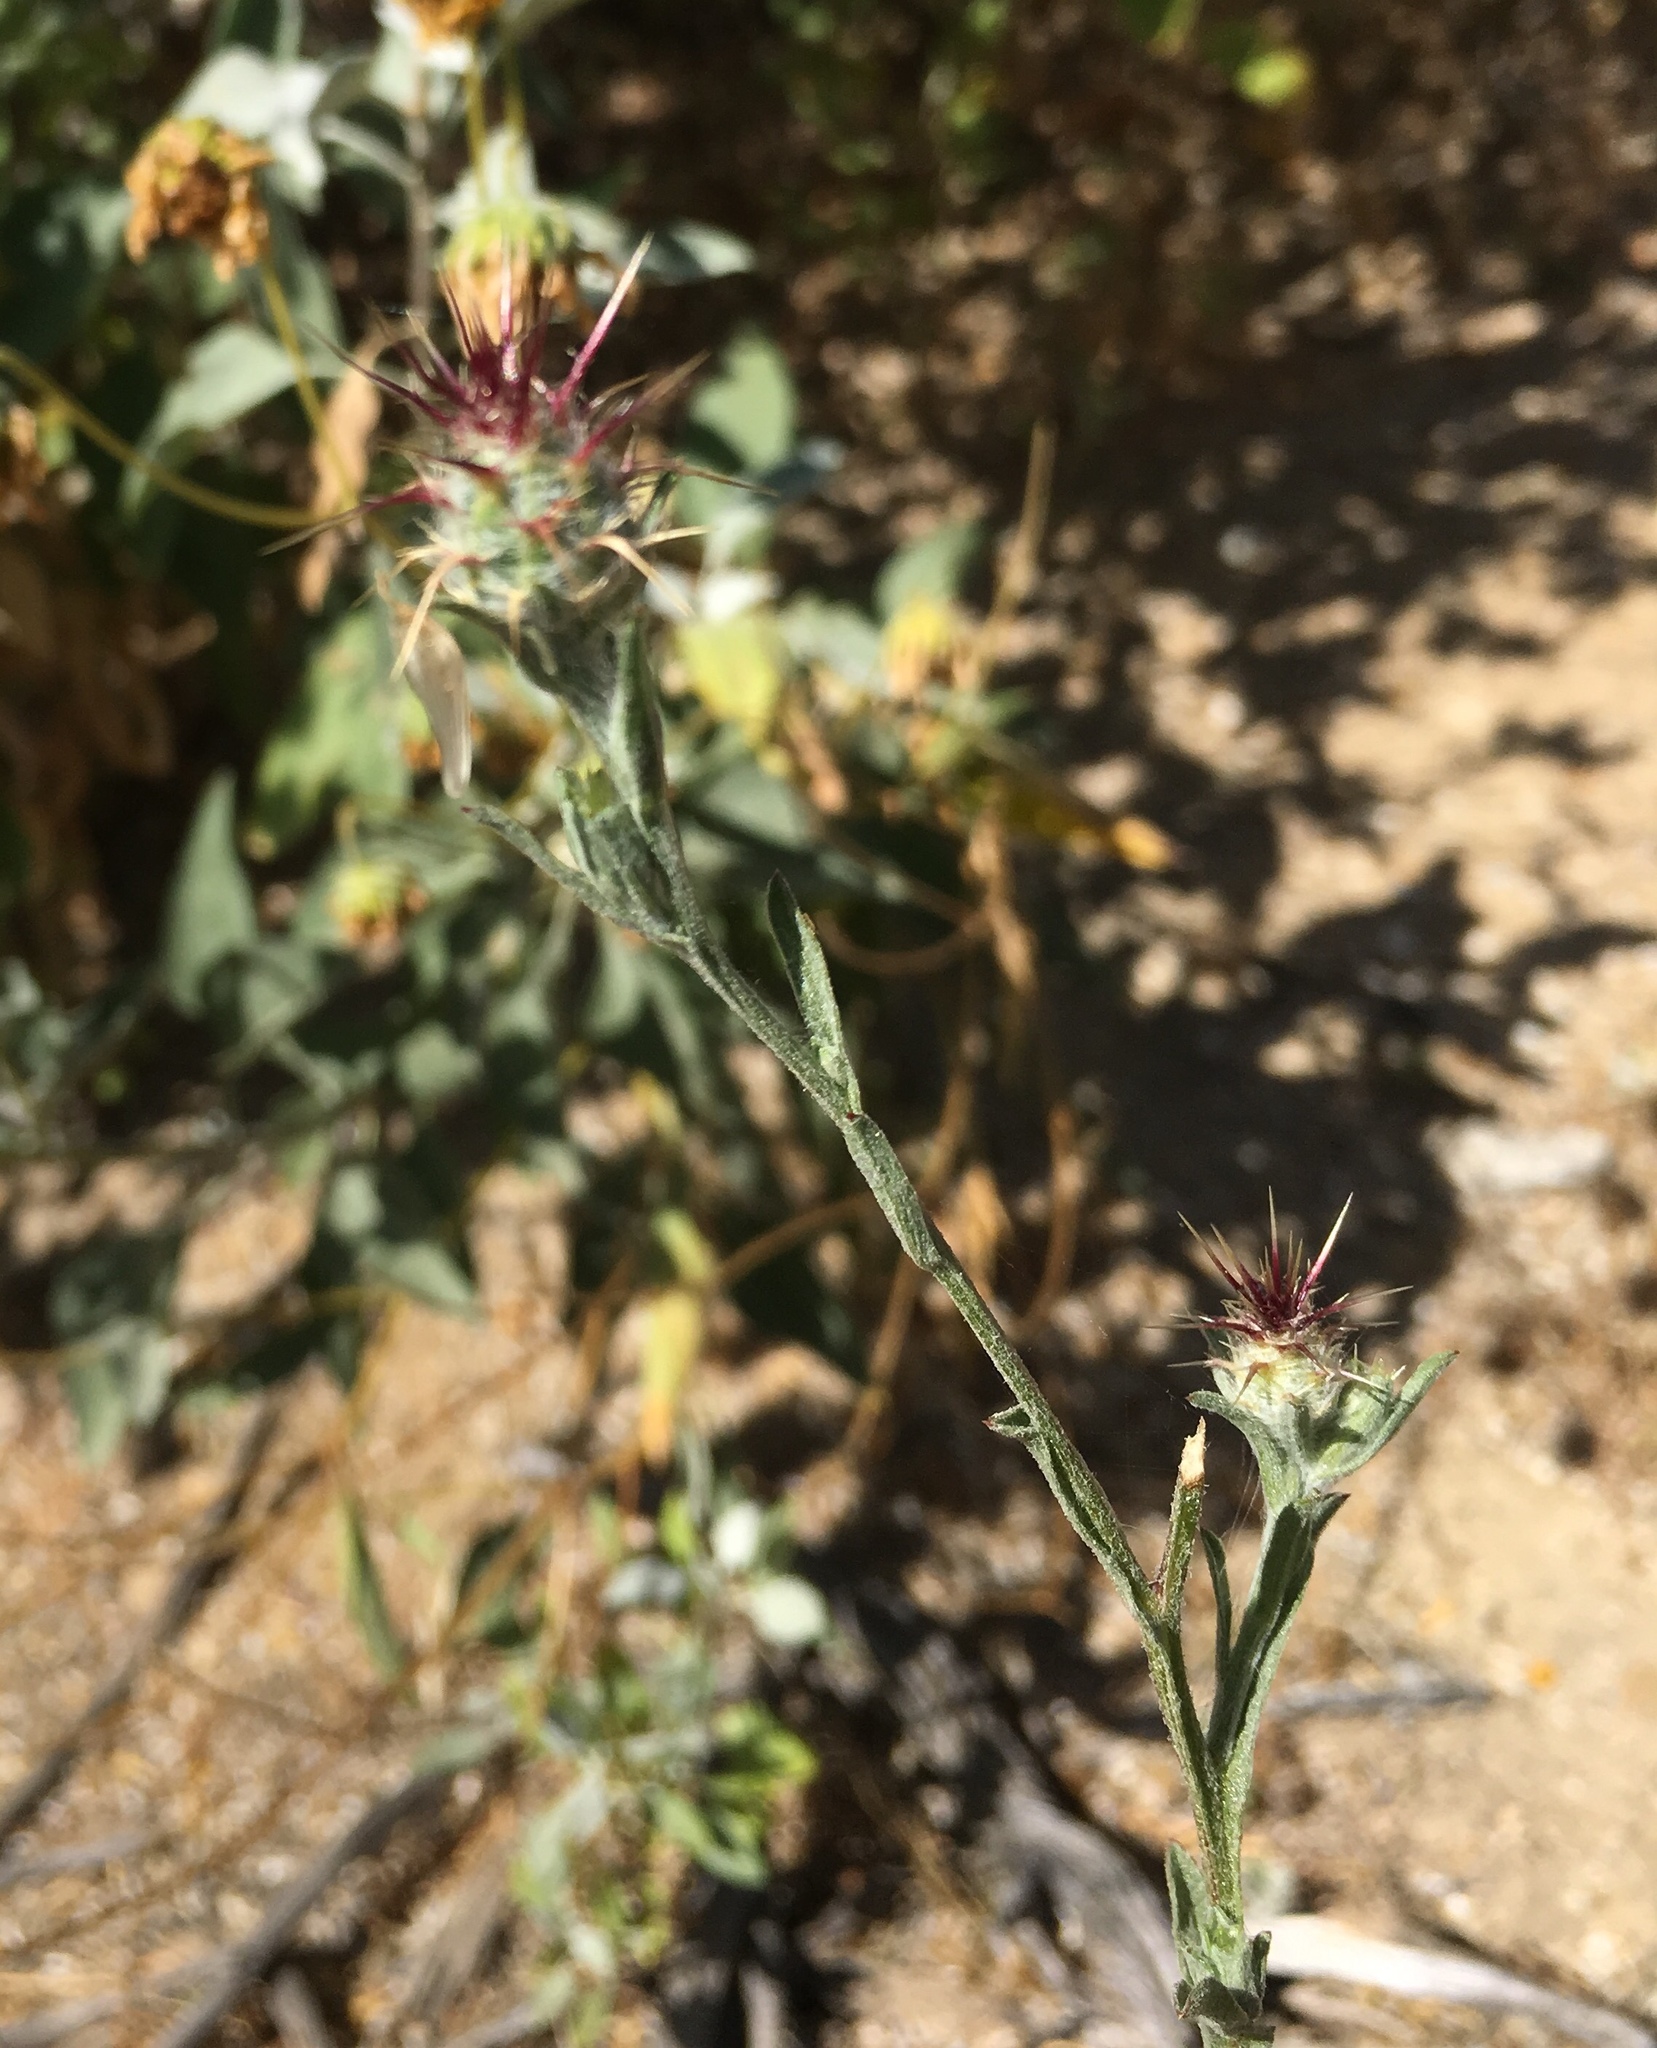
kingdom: Plantae
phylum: Tracheophyta
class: Magnoliopsida
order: Asterales
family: Asteraceae
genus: Centaurea
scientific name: Centaurea melitensis
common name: Maltese star-thistle
